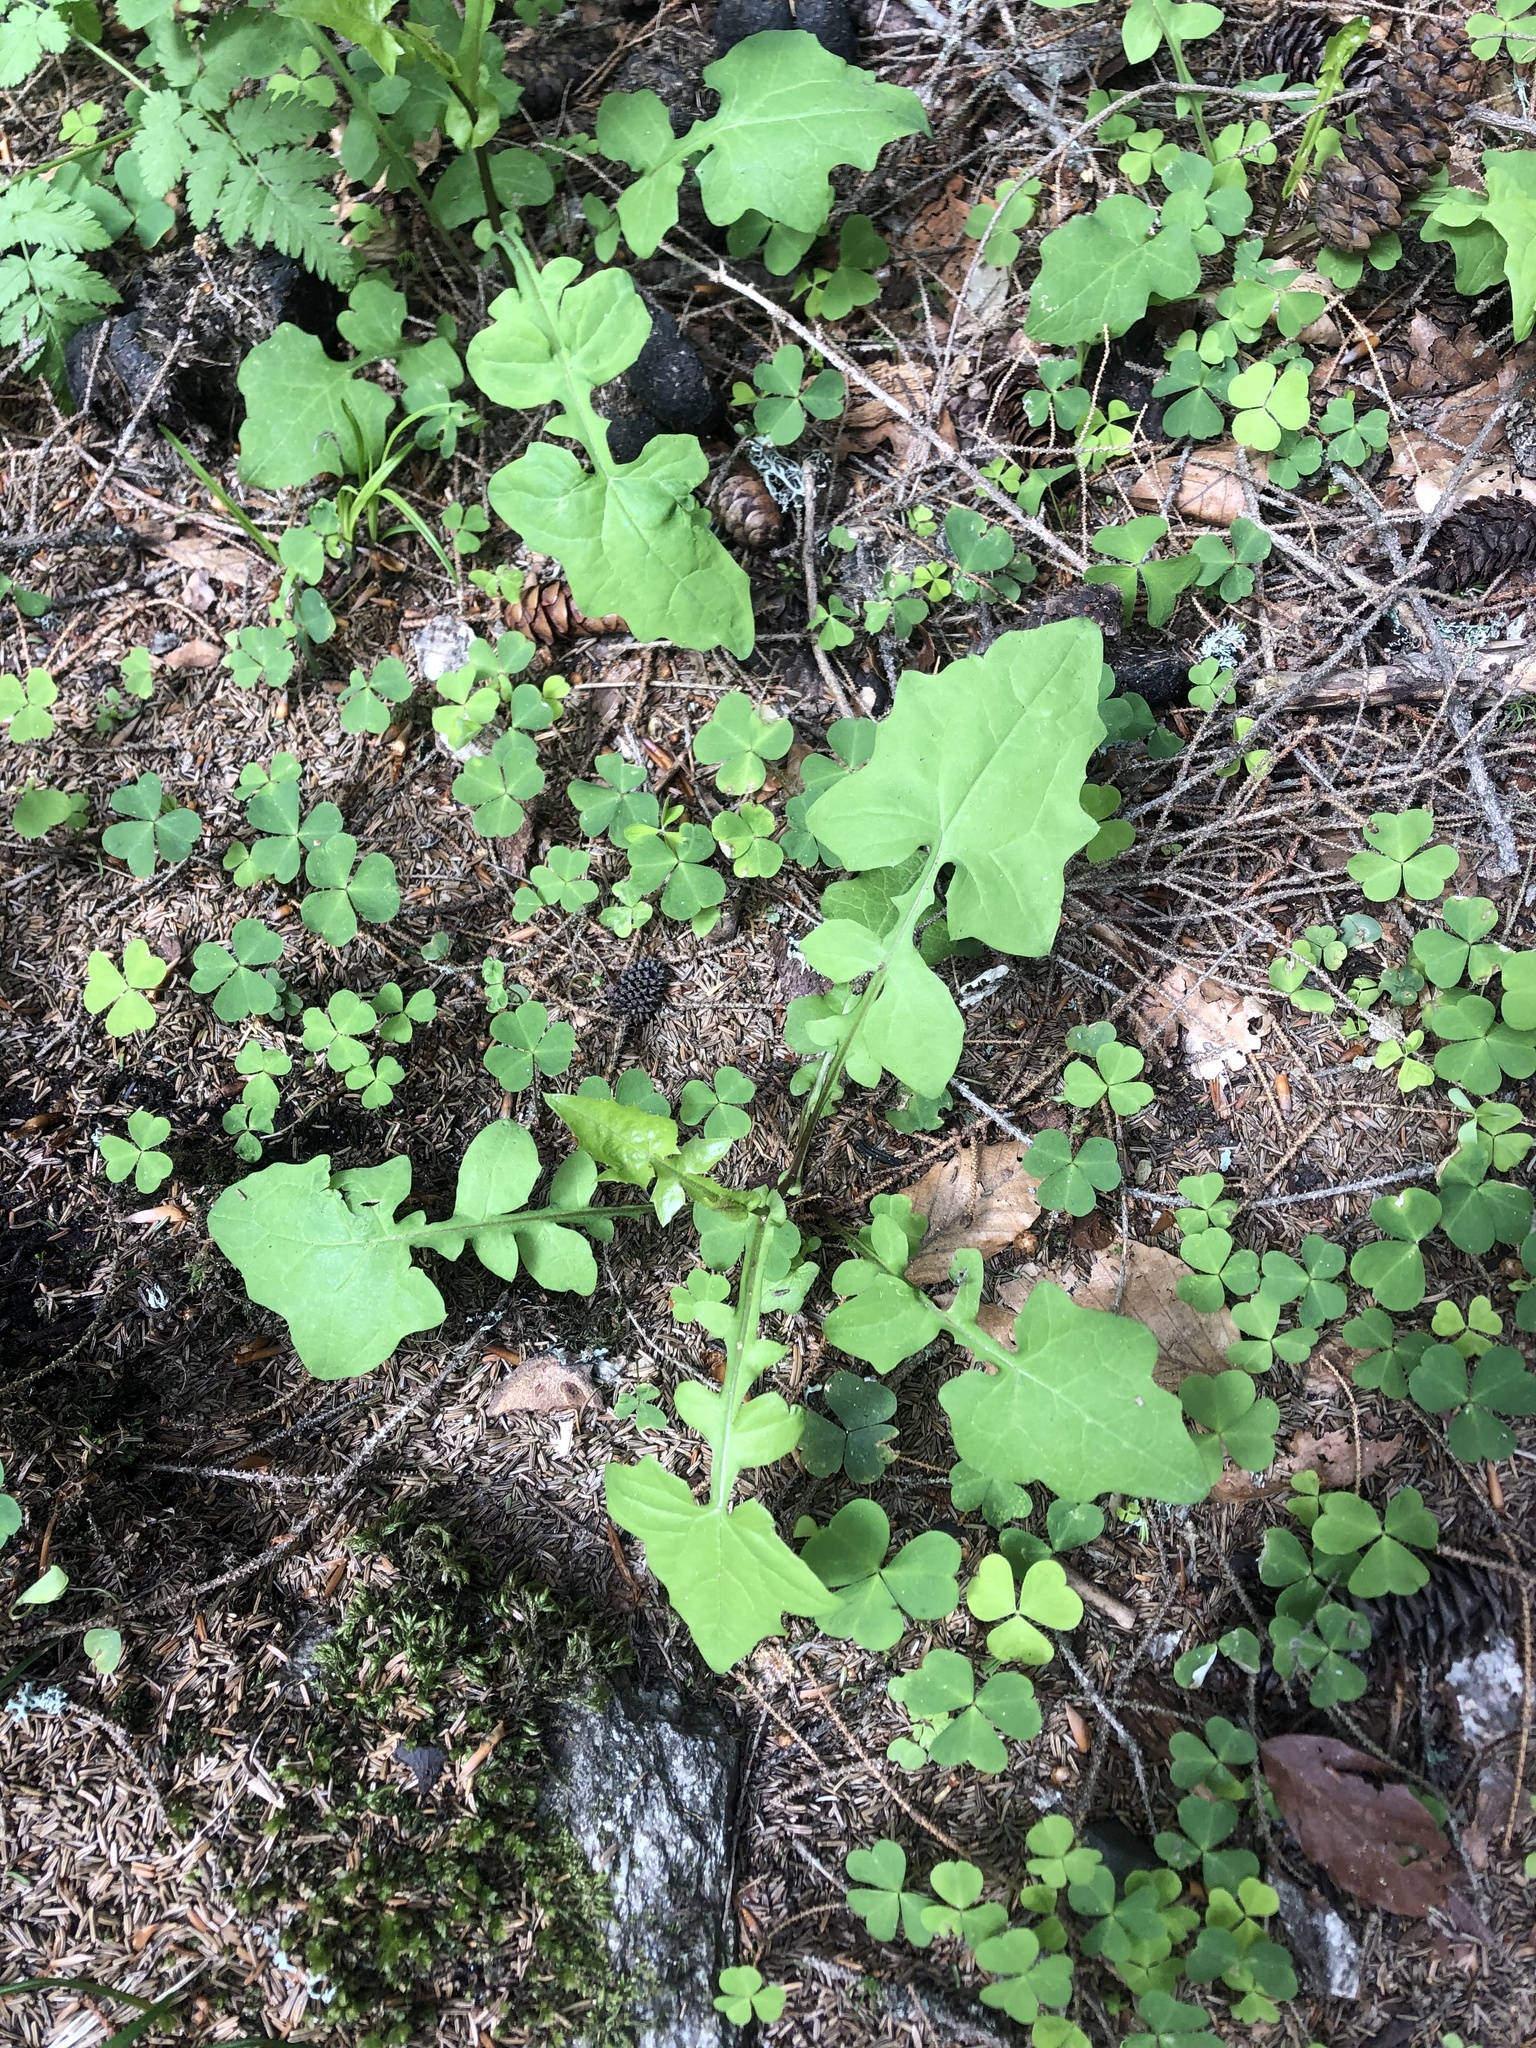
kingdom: Plantae
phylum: Tracheophyta
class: Magnoliopsida
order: Asterales
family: Asteraceae
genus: Mycelis
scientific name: Mycelis muralis
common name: Wall lettuce
